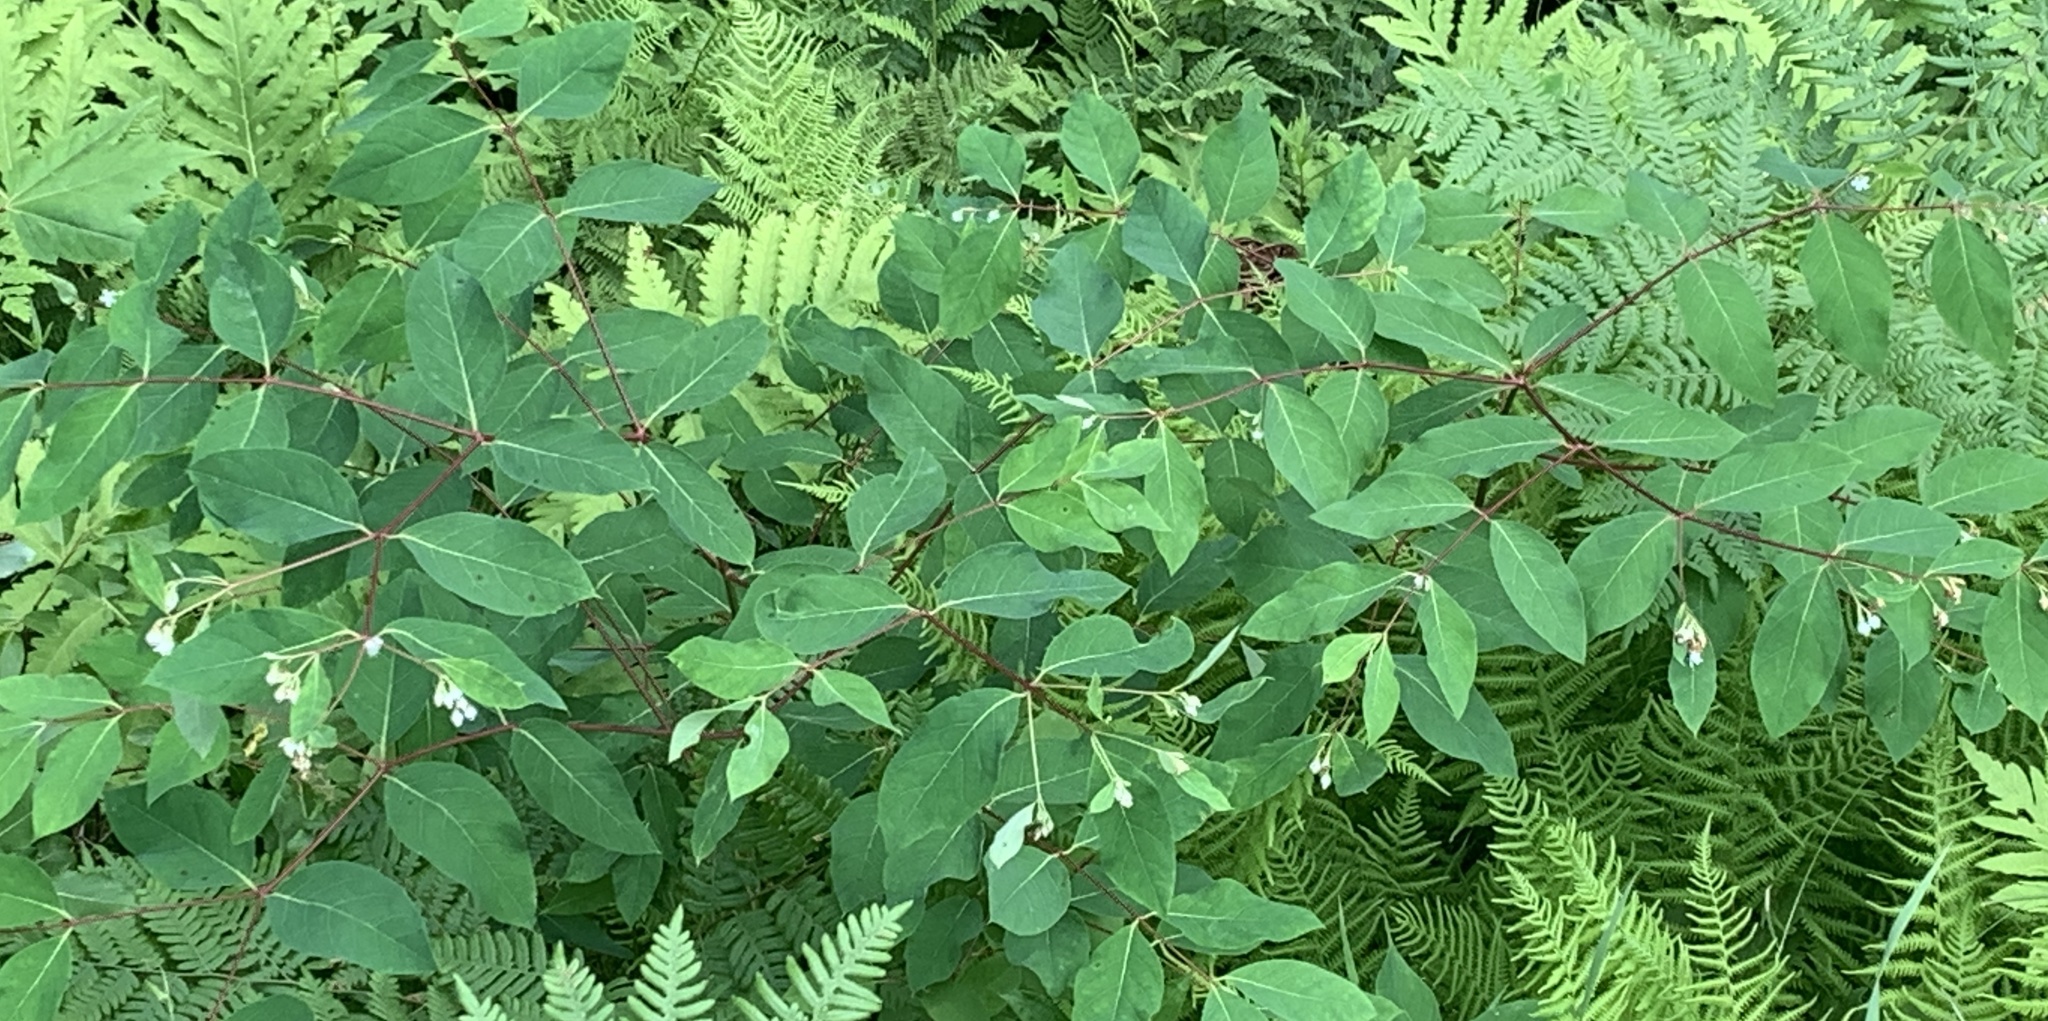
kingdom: Plantae
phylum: Tracheophyta
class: Magnoliopsida
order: Gentianales
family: Apocynaceae
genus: Apocynum
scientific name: Apocynum androsaemifolium
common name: Spreading dogbane
